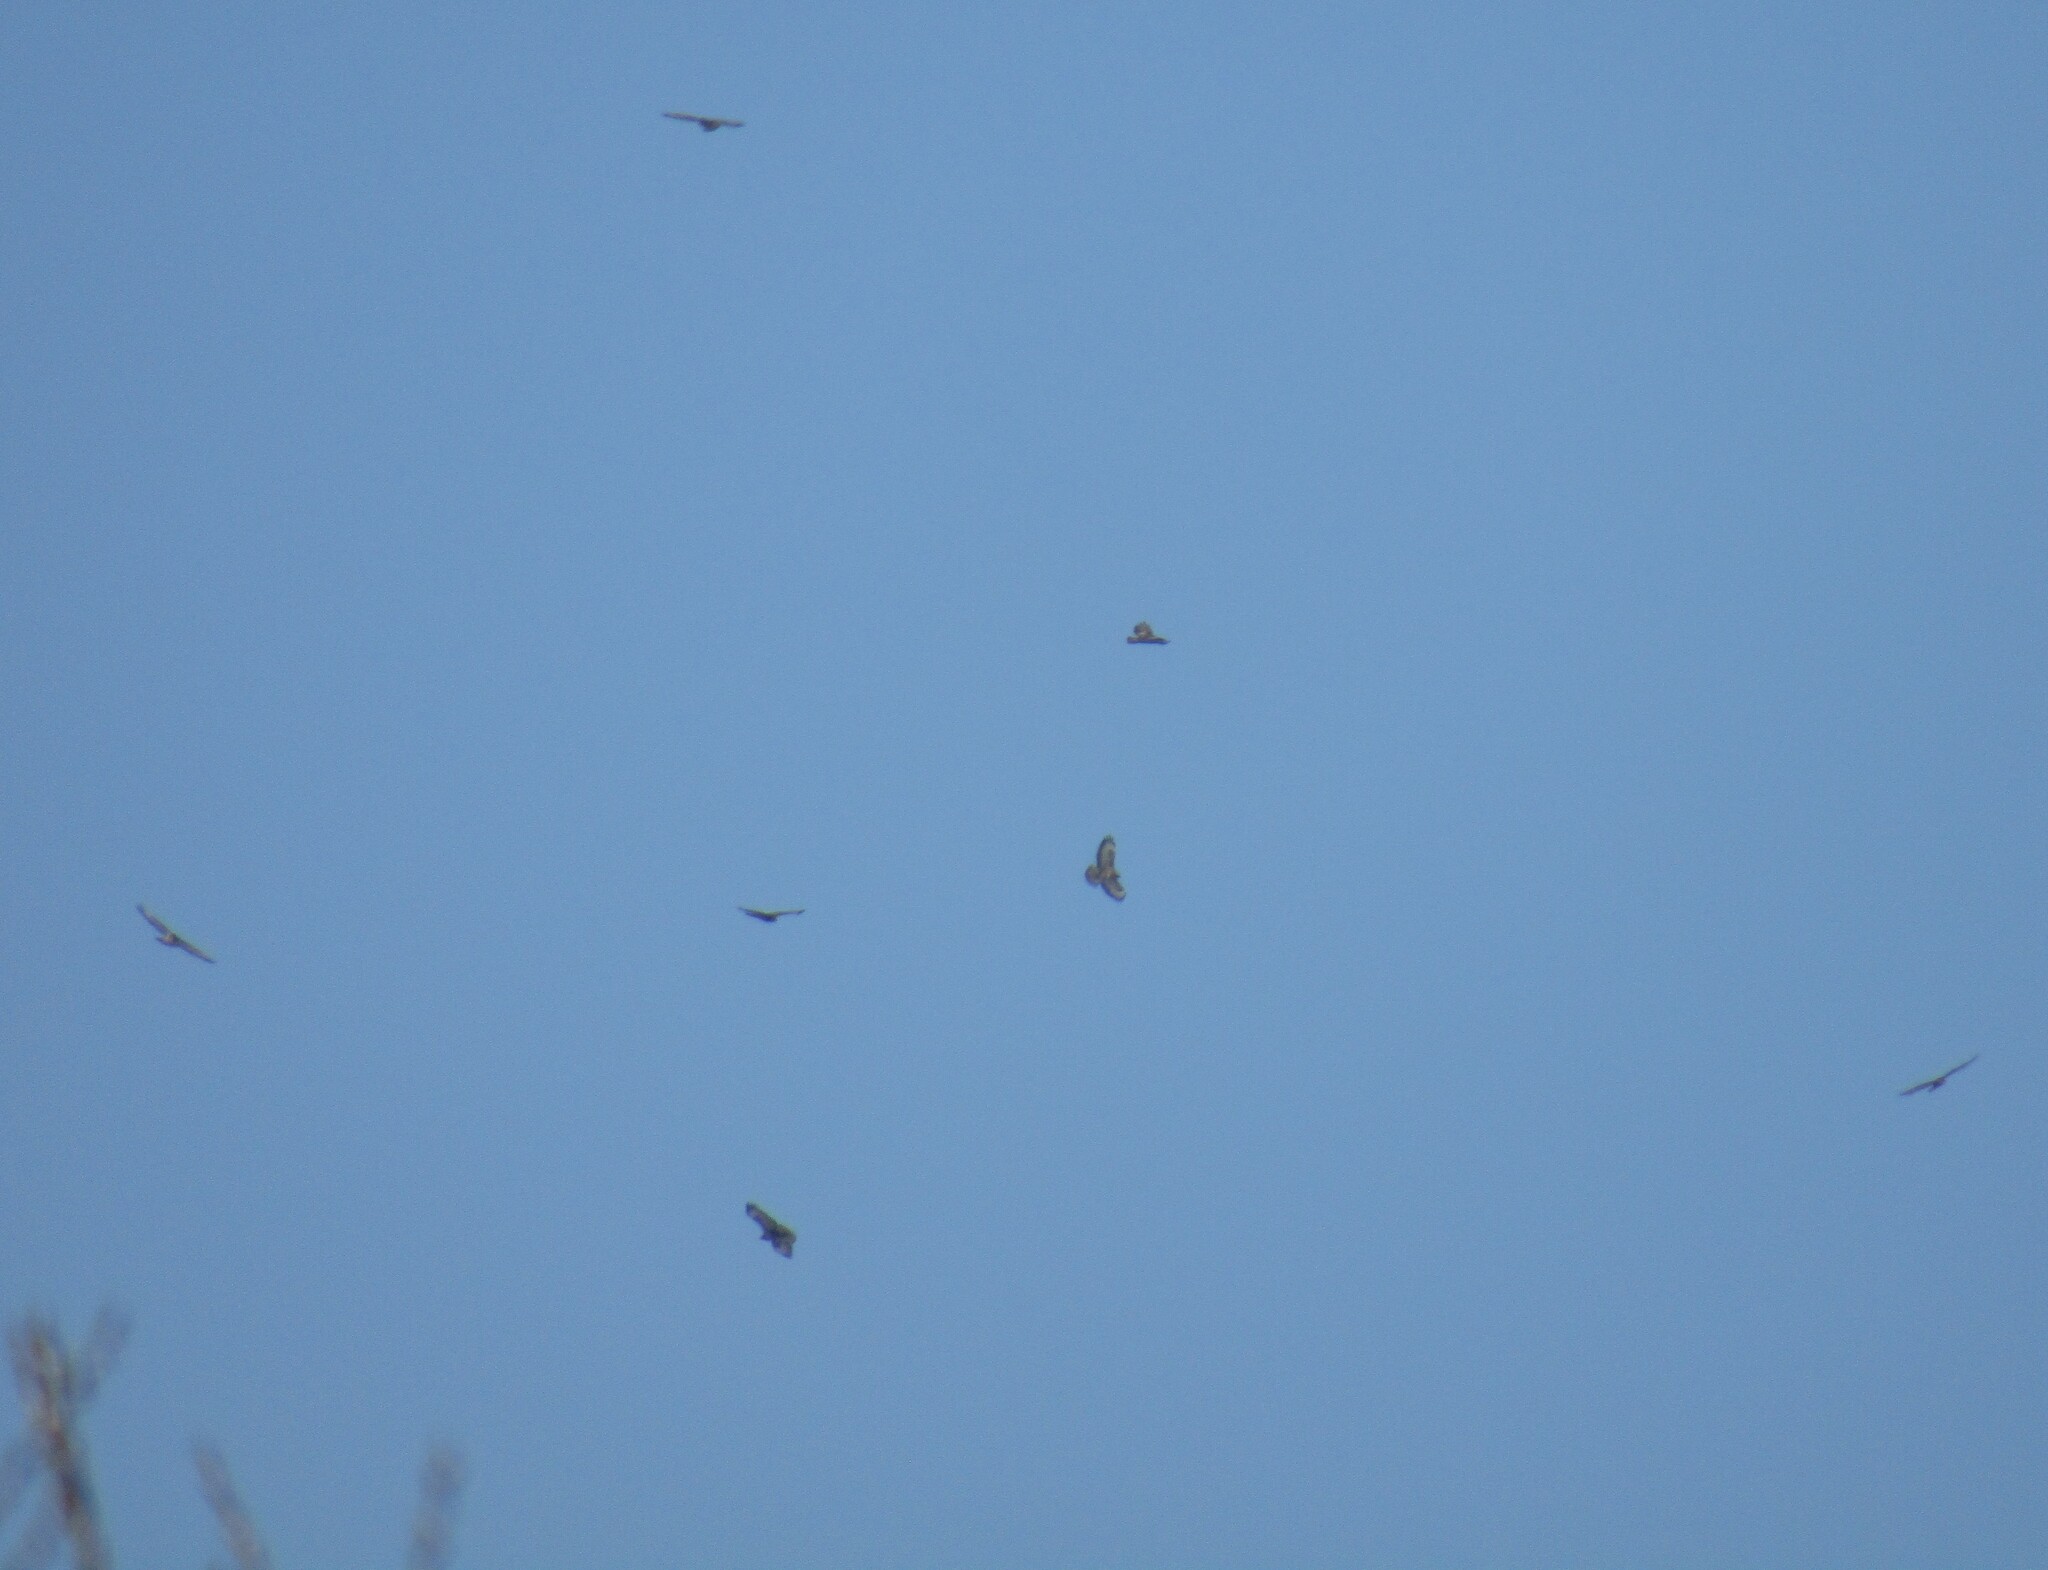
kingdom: Animalia
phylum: Chordata
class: Aves
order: Accipitriformes
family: Accipitridae
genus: Buteo
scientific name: Buteo buteo
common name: Common buzzard
